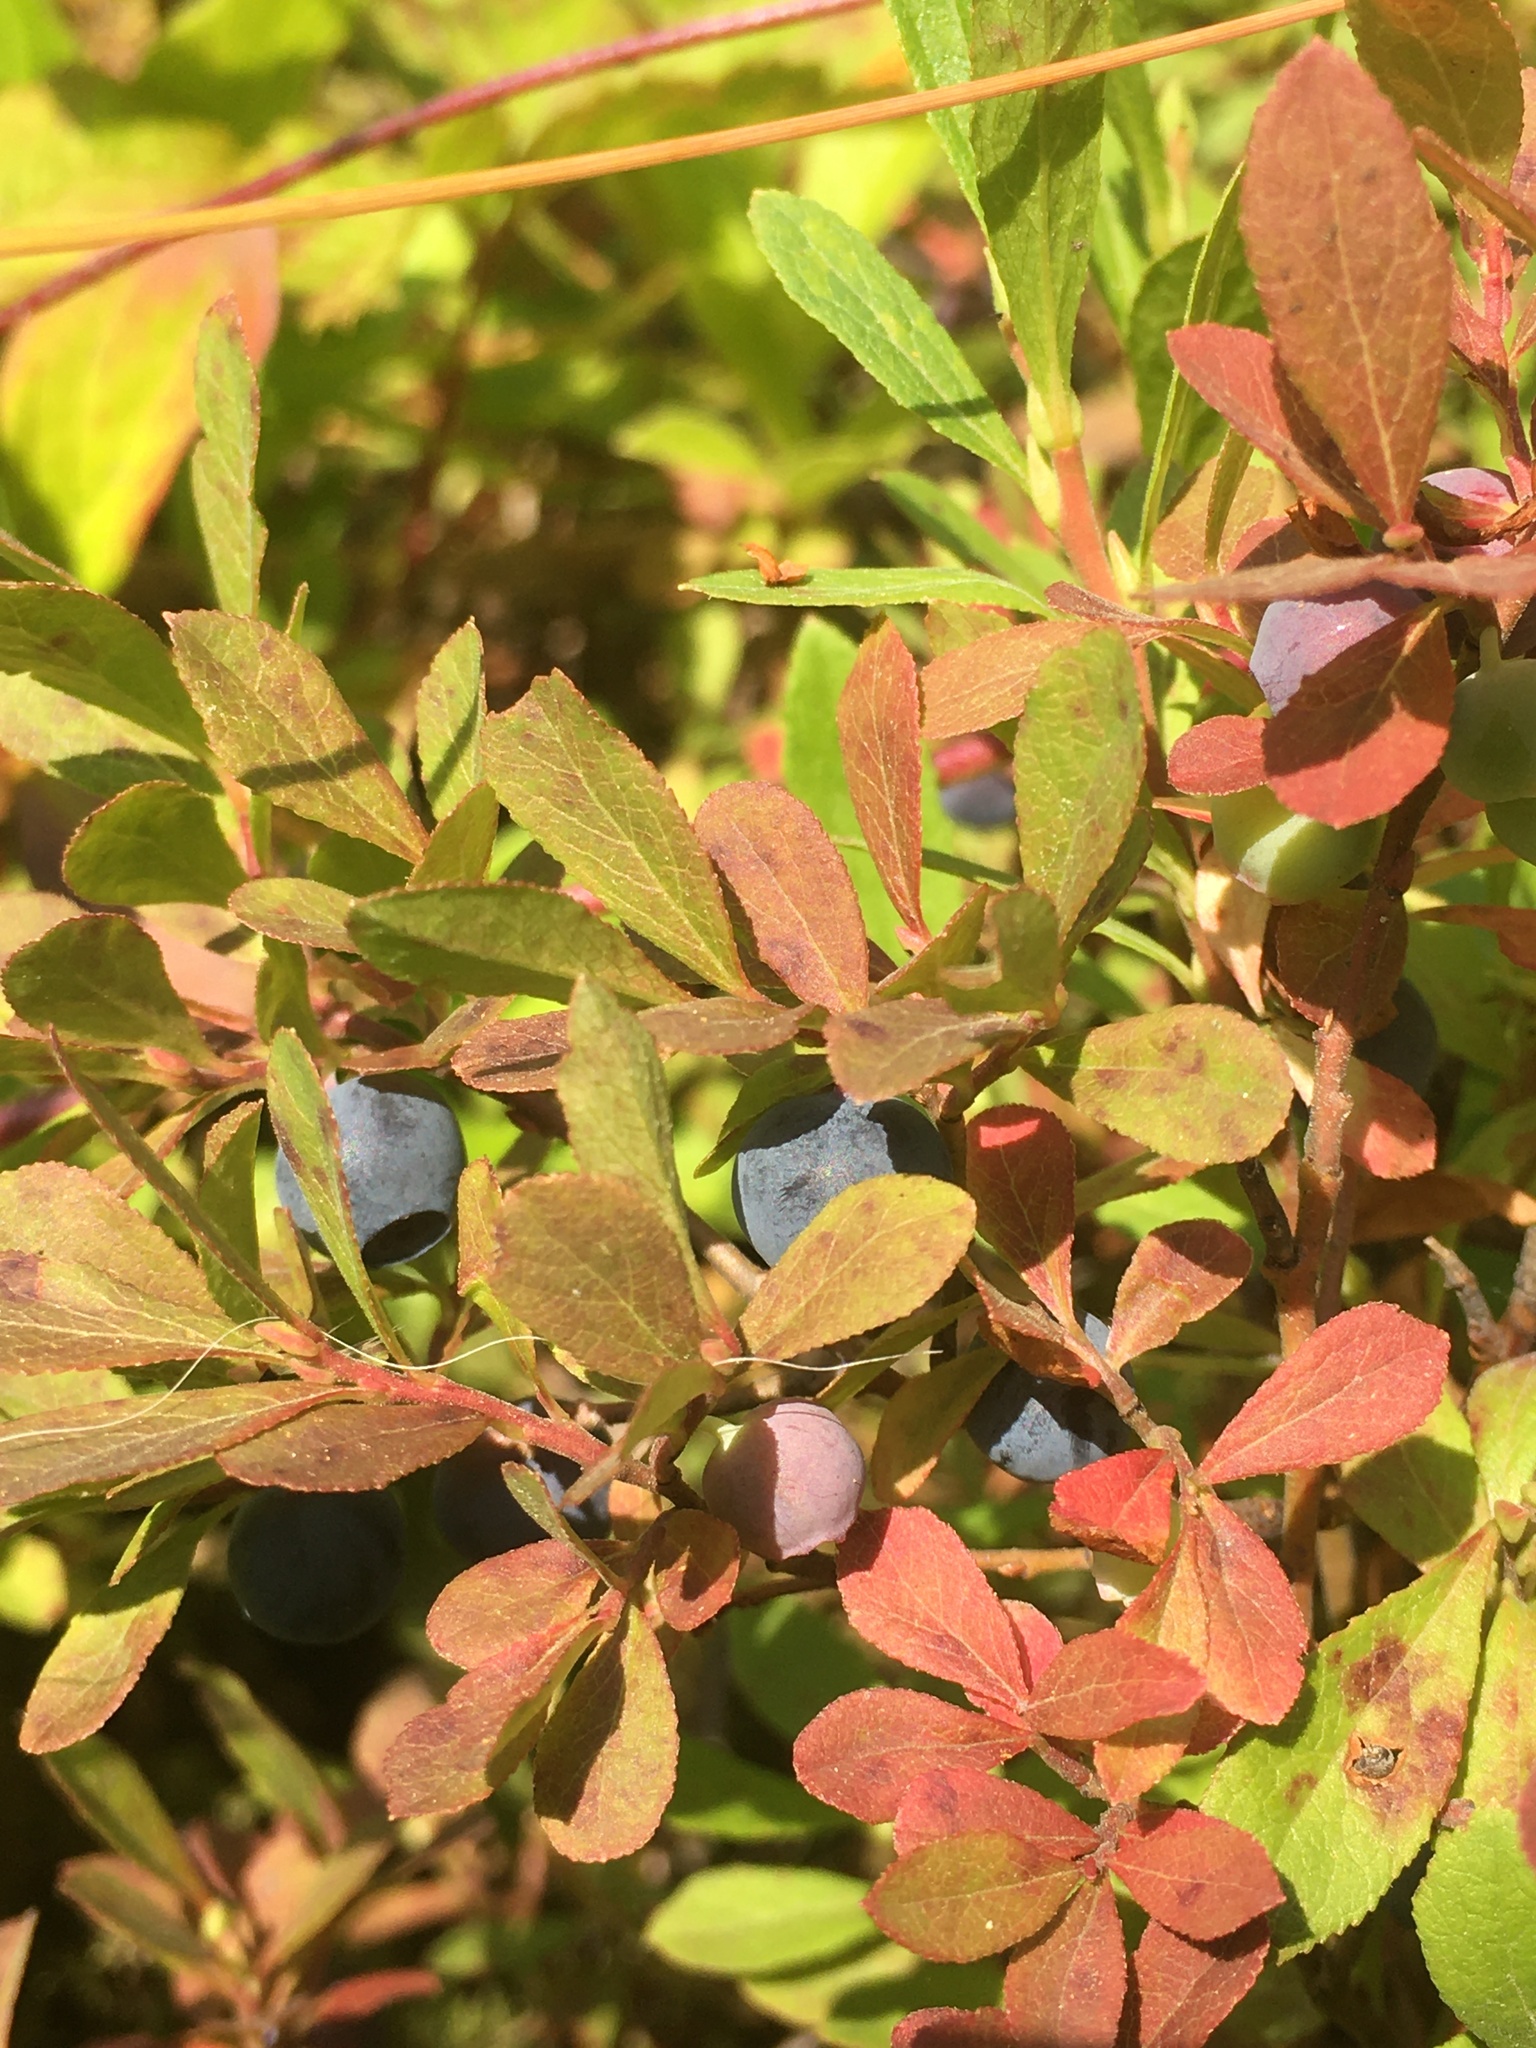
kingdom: Plantae
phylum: Tracheophyta
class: Magnoliopsida
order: Ericales
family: Ericaceae
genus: Vaccinium
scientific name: Vaccinium cespitosum
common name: Dwarf bilberry
